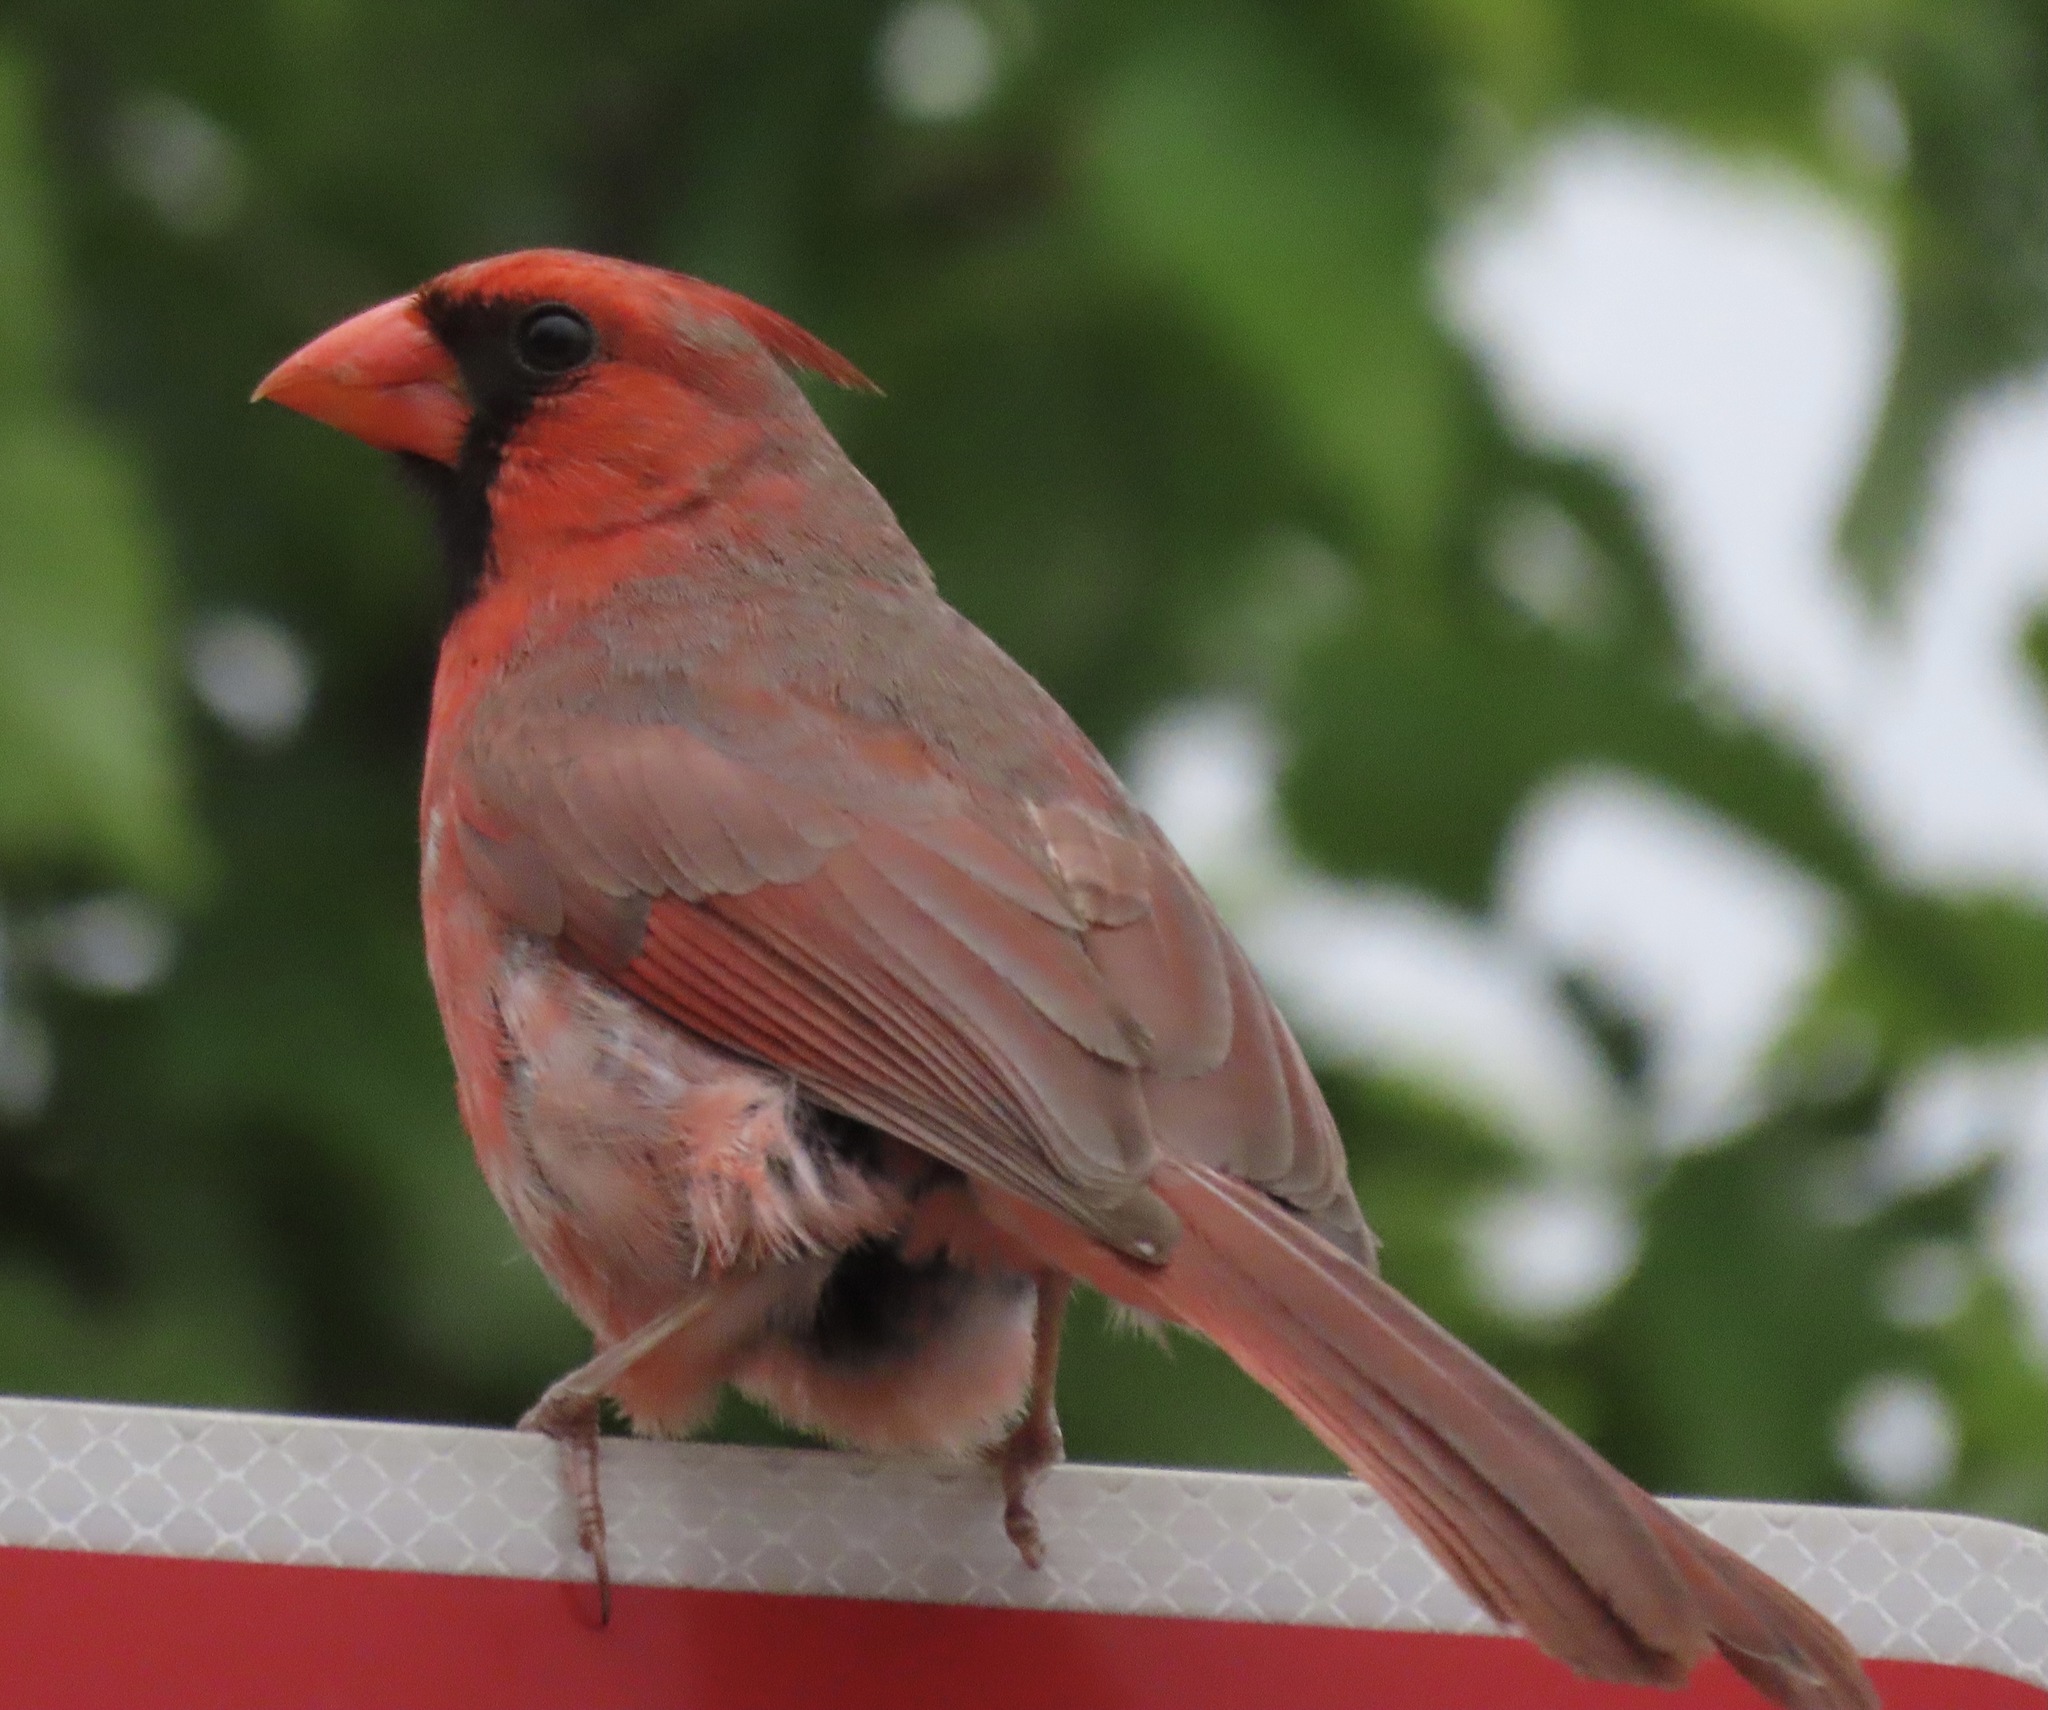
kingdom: Animalia
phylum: Chordata
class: Aves
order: Passeriformes
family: Cardinalidae
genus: Cardinalis
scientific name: Cardinalis cardinalis
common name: Northern cardinal
